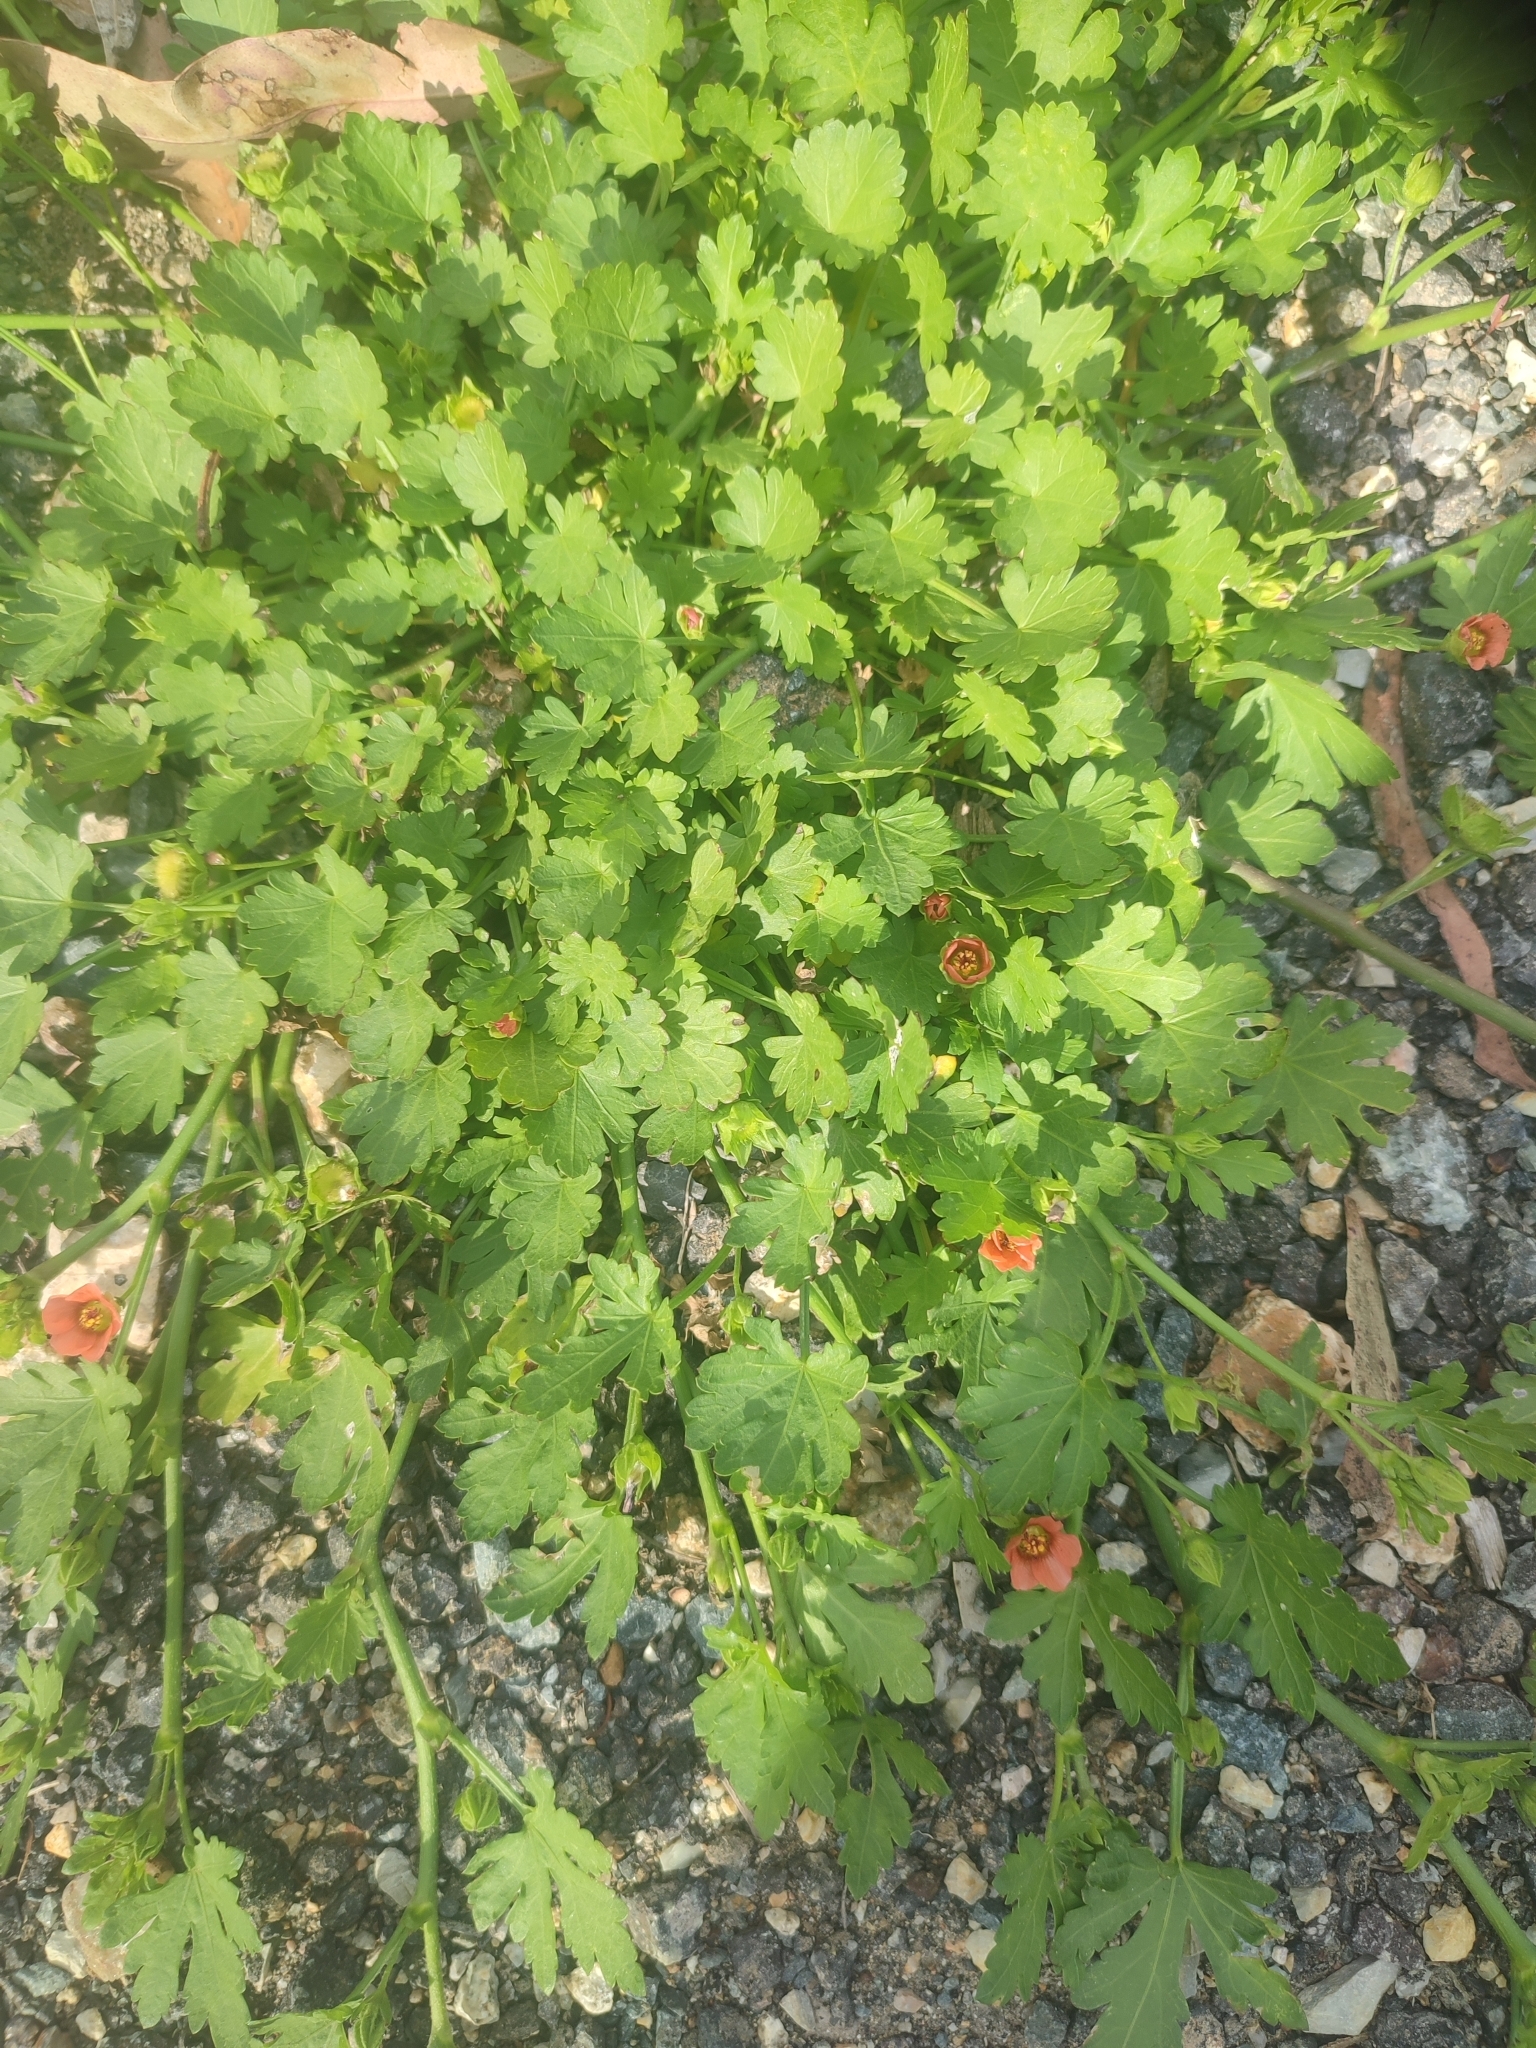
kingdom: Plantae
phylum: Tracheophyta
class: Magnoliopsida
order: Malvales
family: Malvaceae
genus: Modiola
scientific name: Modiola caroliniana
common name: Carolina bristlemallow
